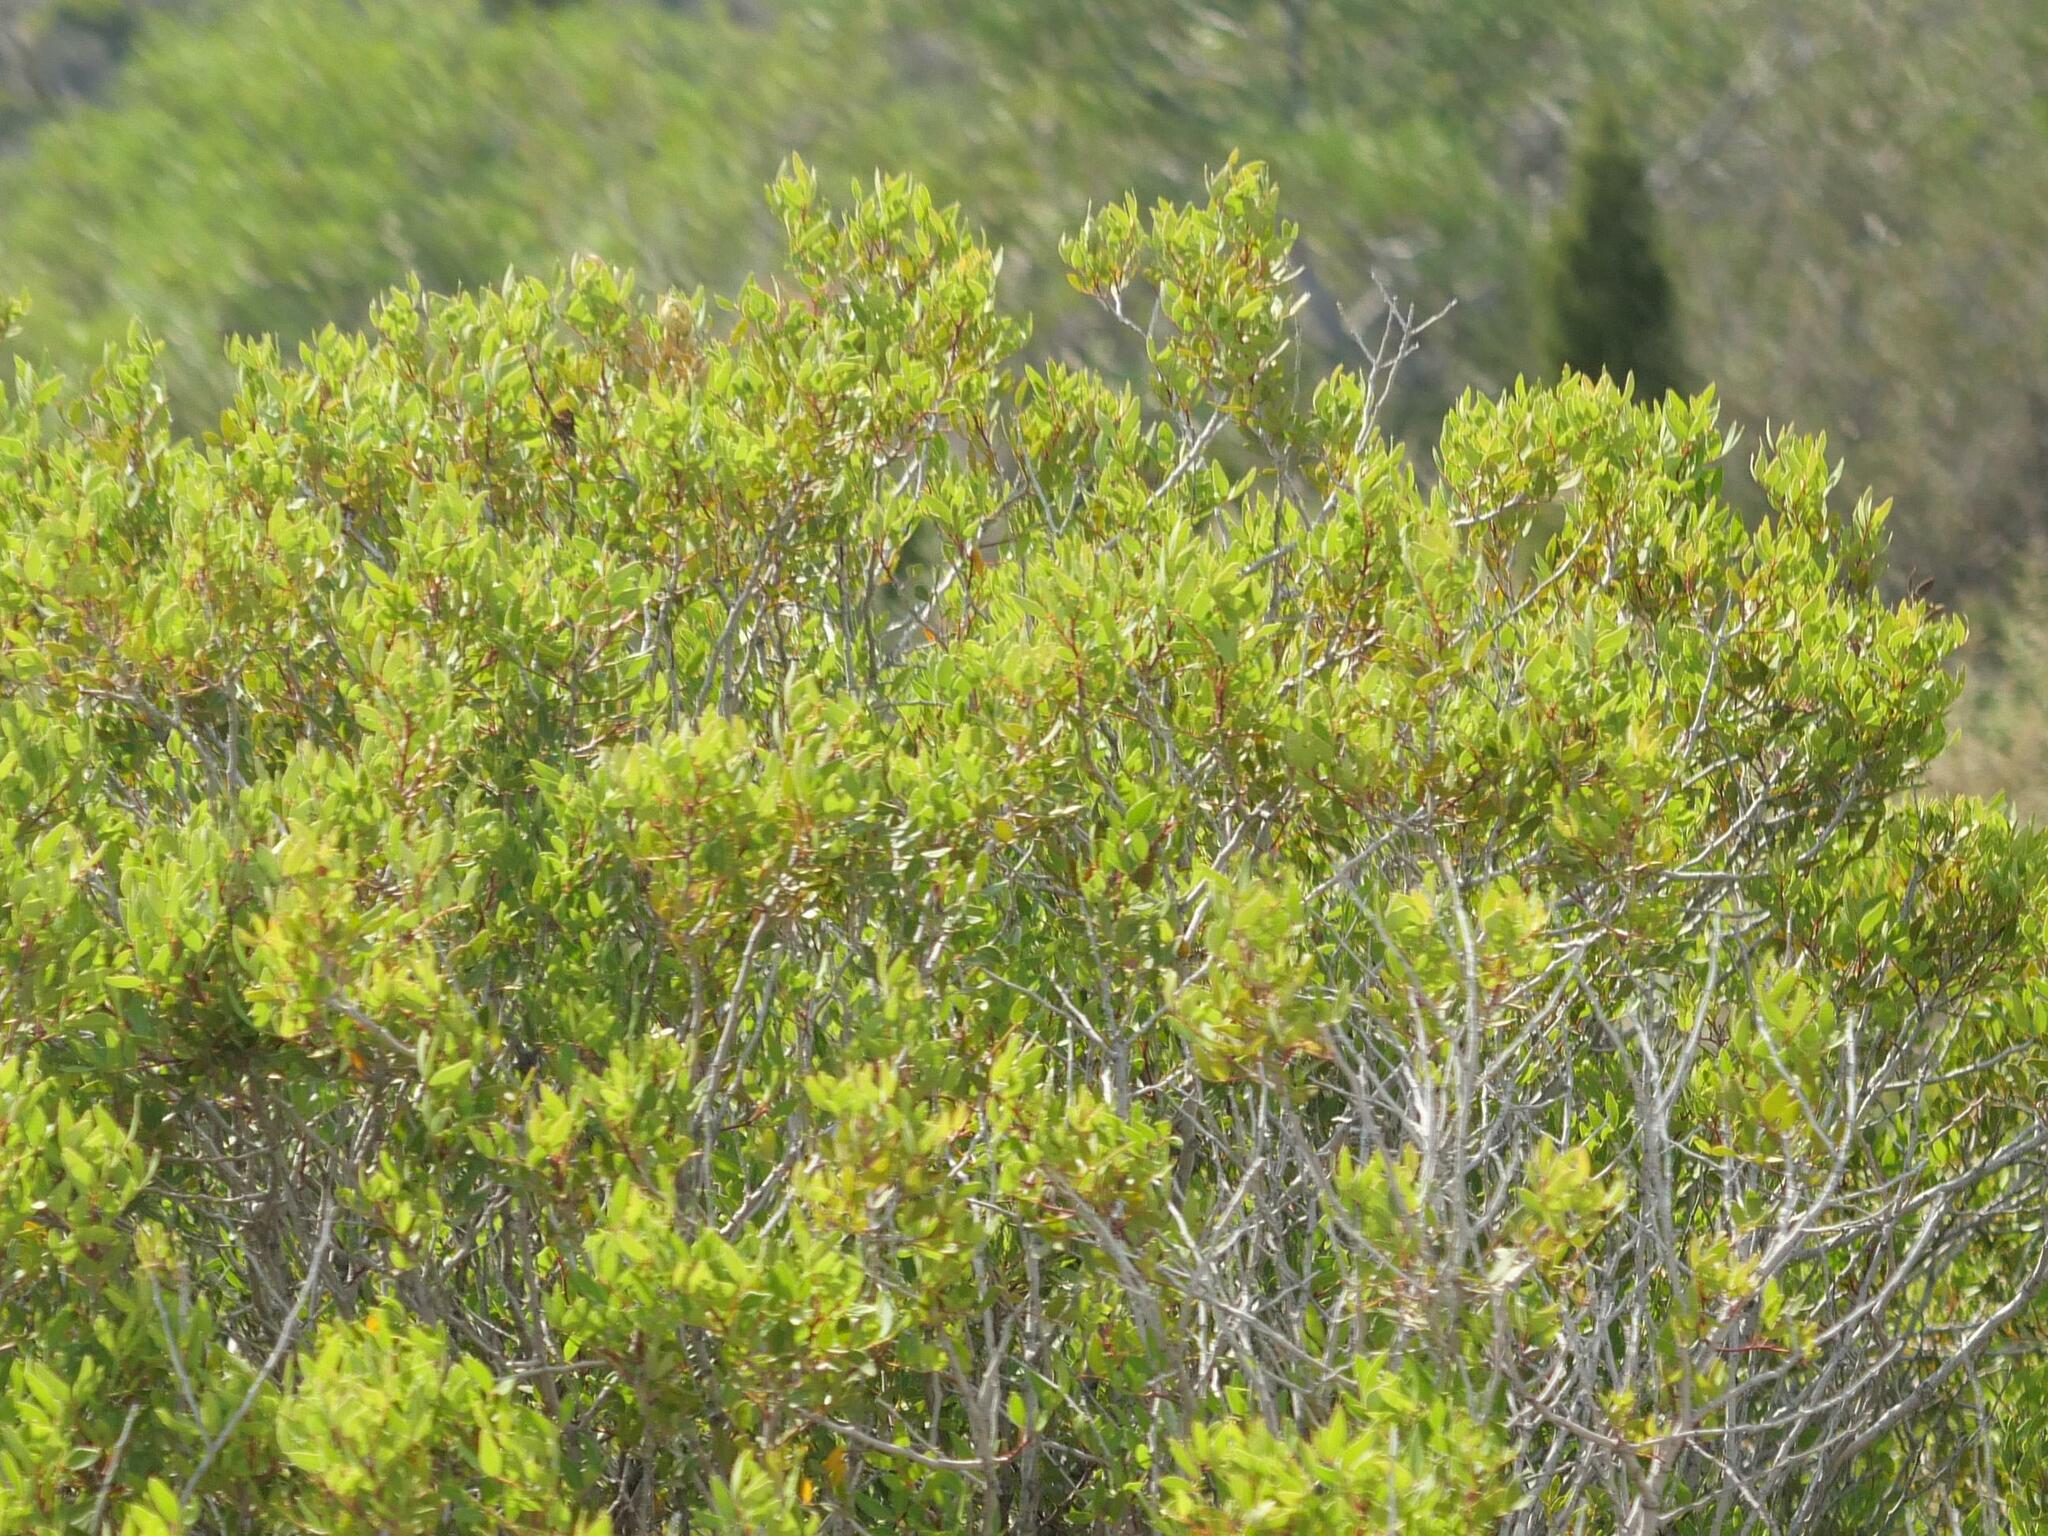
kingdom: Plantae
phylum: Tracheophyta
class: Magnoliopsida
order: Sapindales
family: Anacardiaceae
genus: Pistacia
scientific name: Pistacia lentiscus
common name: Lentisk
